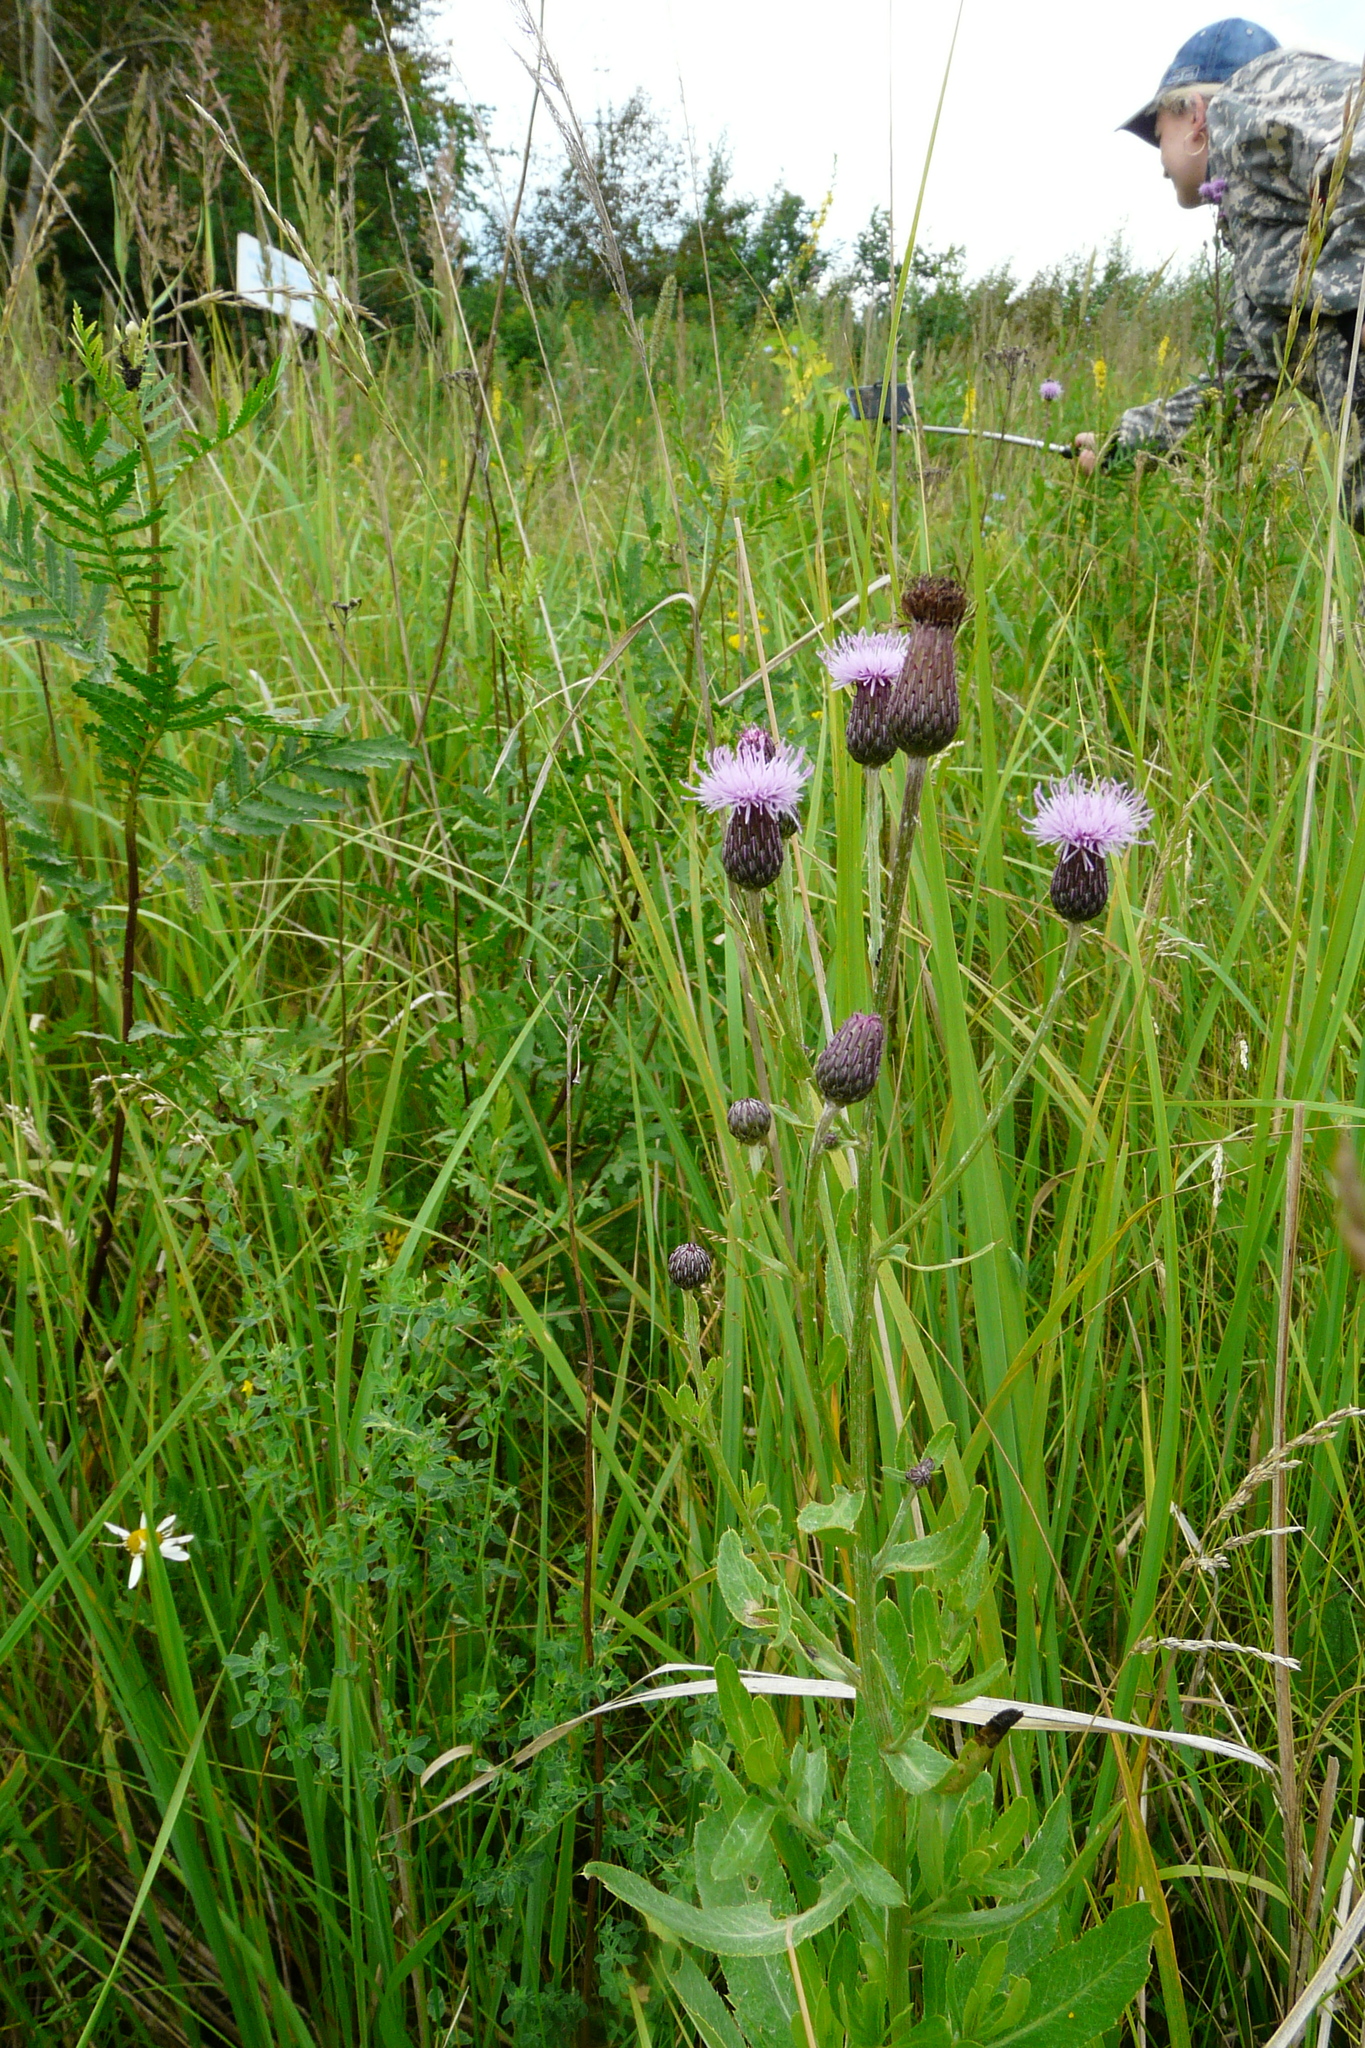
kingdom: Plantae
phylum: Tracheophyta
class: Magnoliopsida
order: Asterales
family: Asteraceae
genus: Cirsium
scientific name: Cirsium arvense
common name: Creeping thistle
